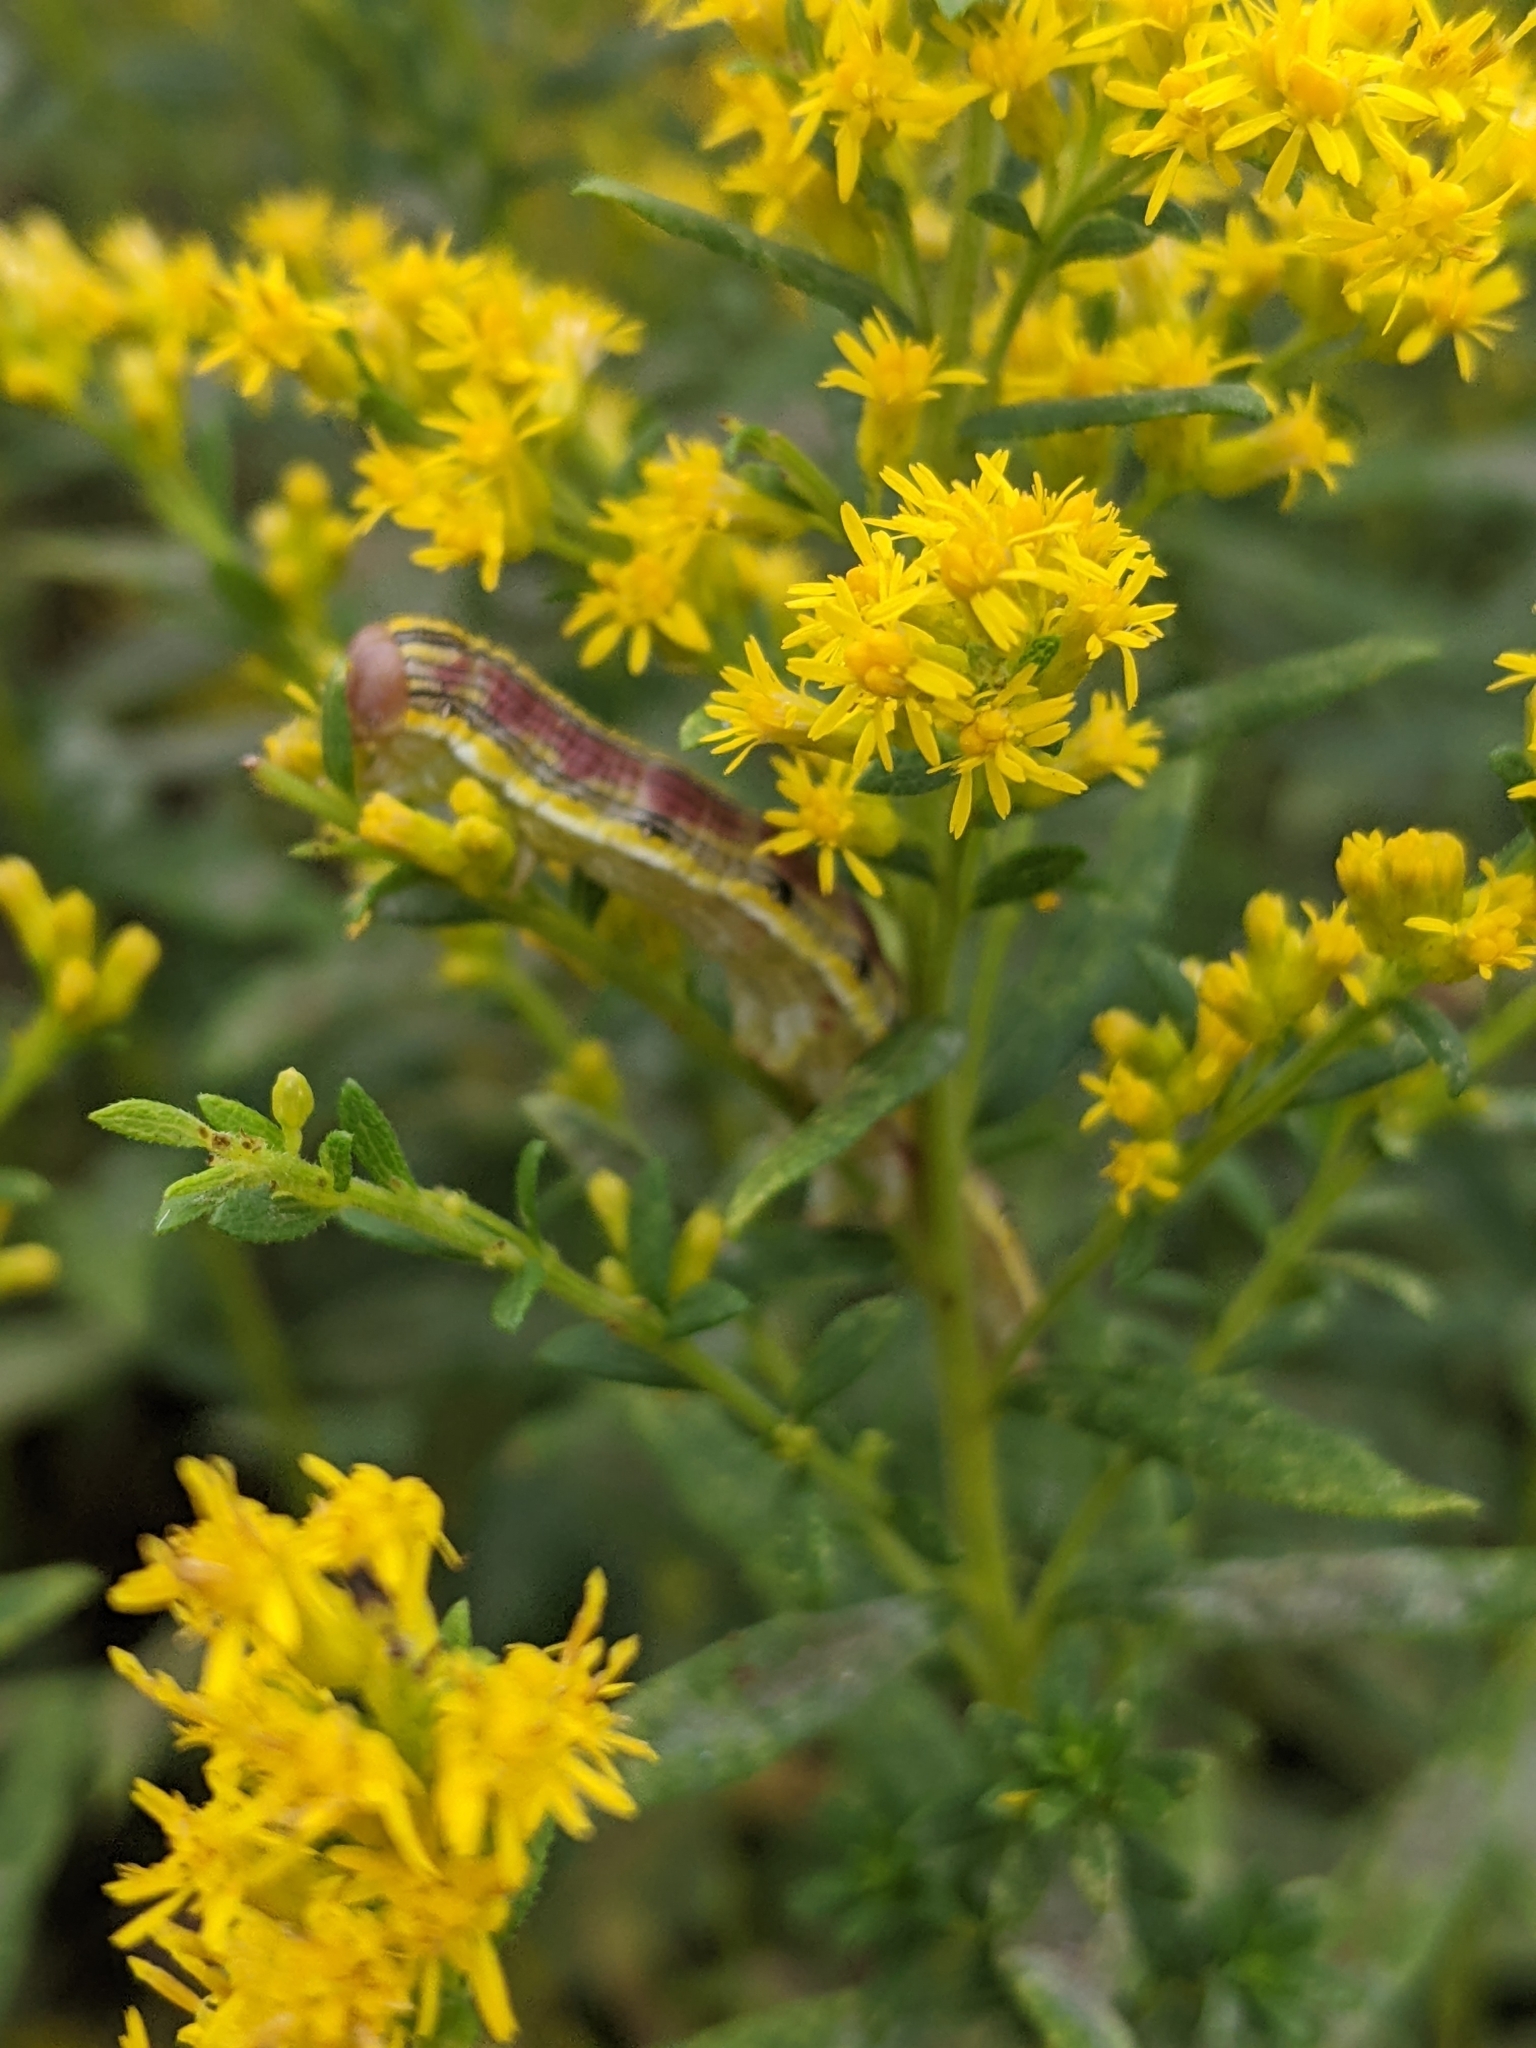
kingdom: Animalia
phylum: Arthropoda
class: Insecta
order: Lepidoptera
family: Noctuidae
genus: Cucullia
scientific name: Cucullia asteroides
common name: Asteroid moth
